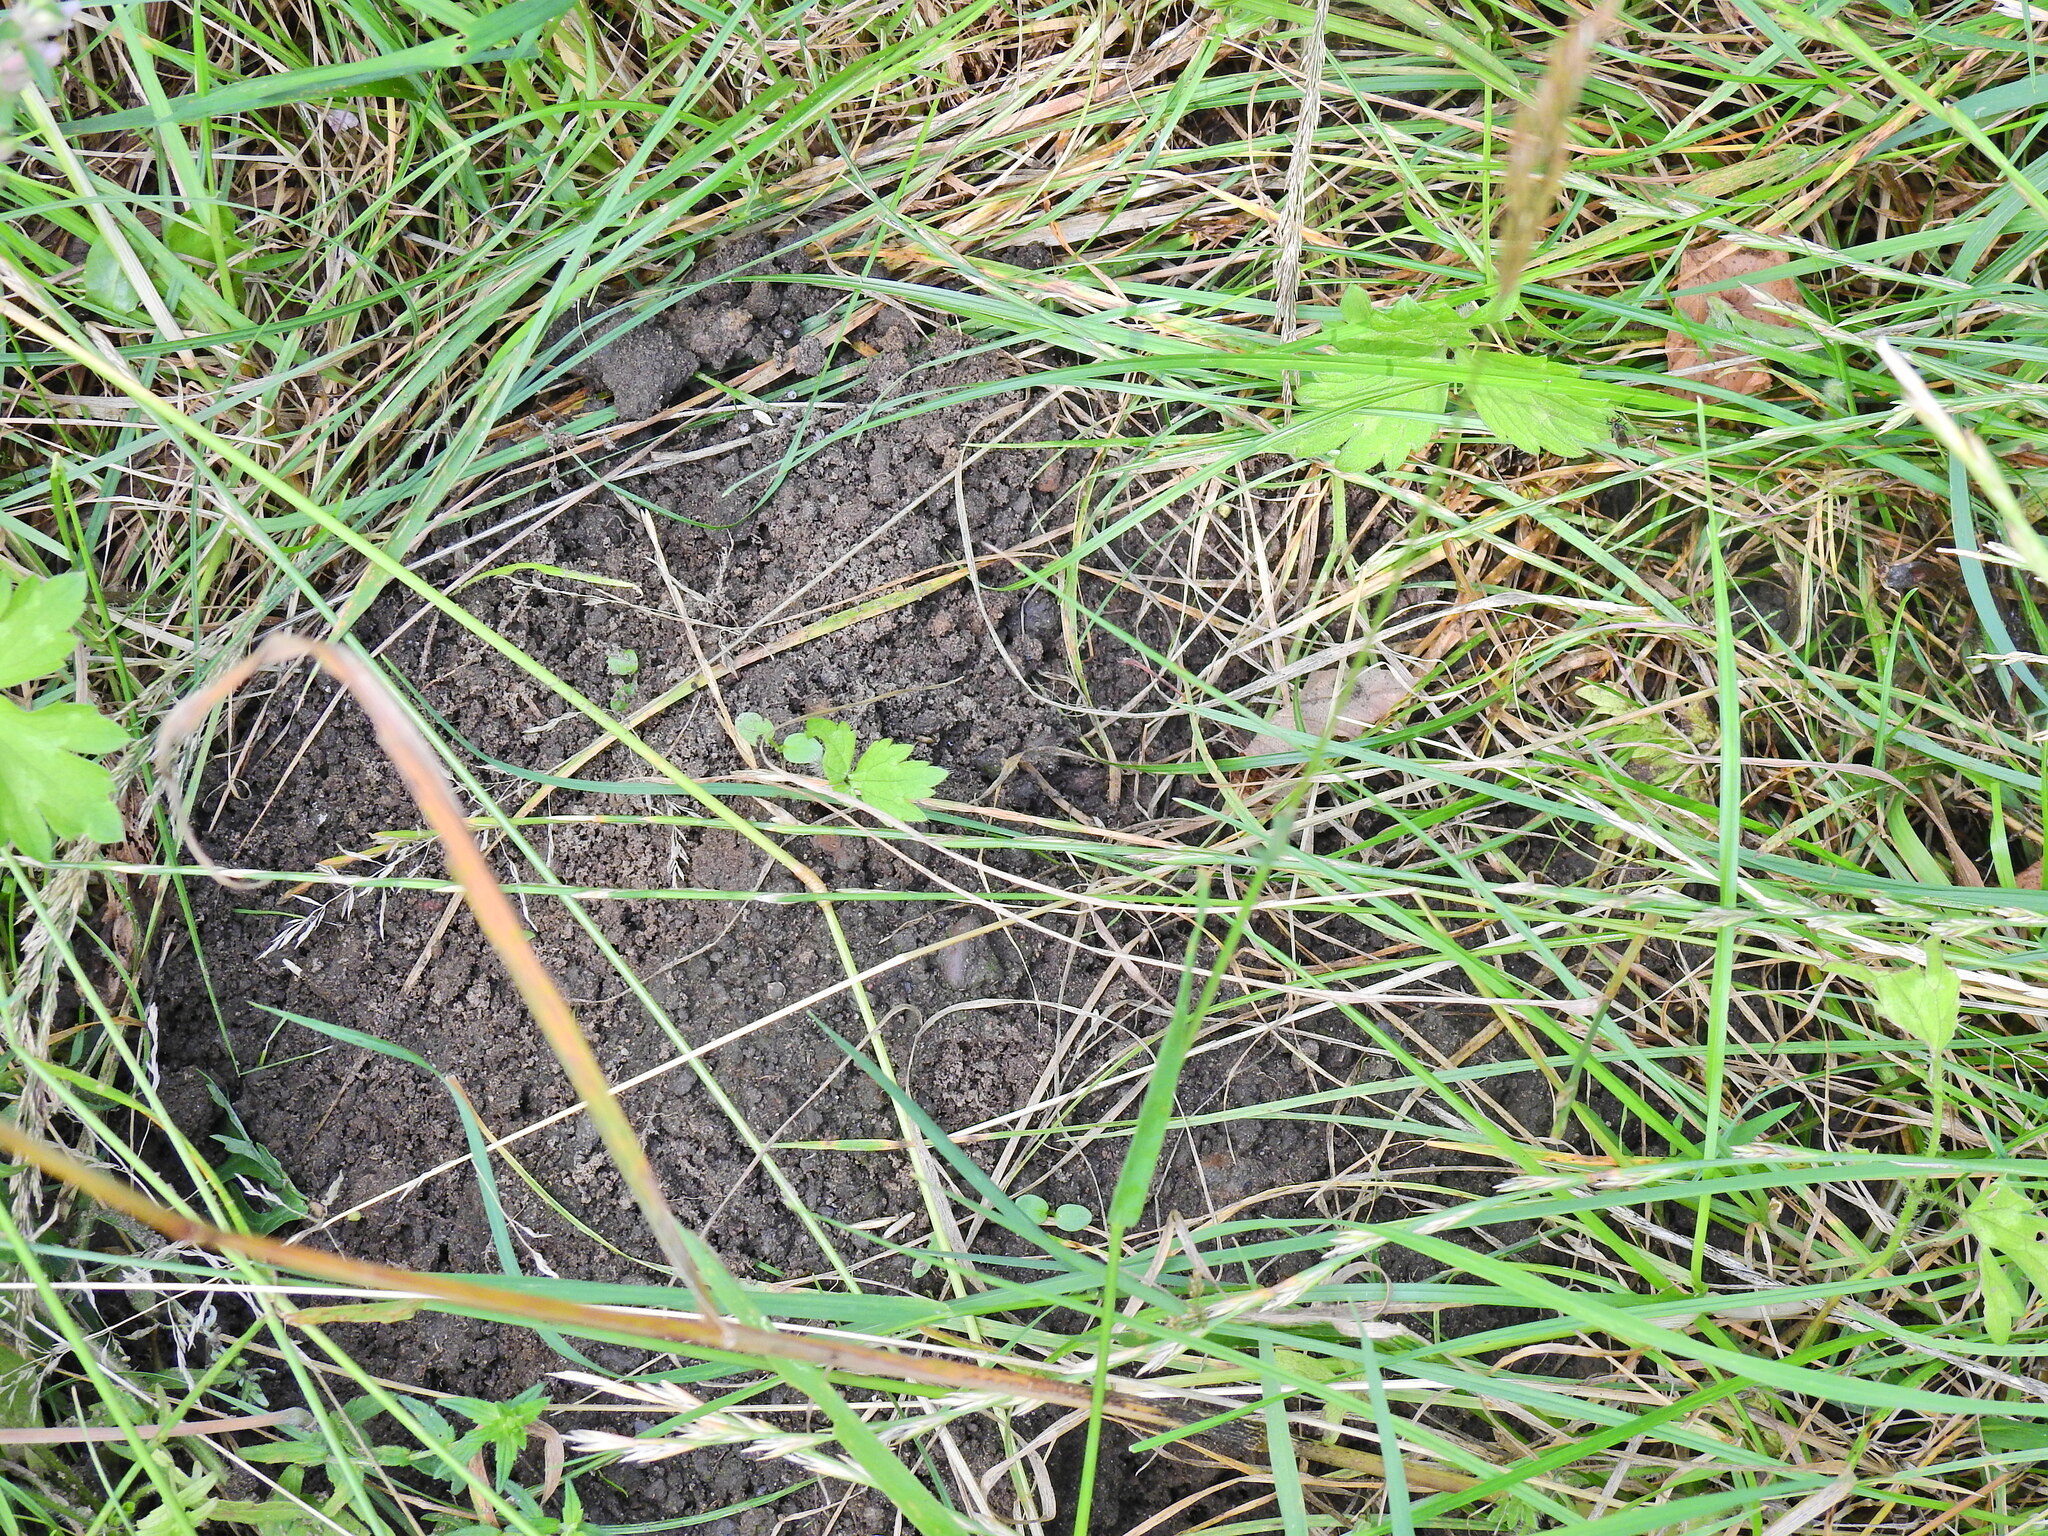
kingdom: Animalia
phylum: Chordata
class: Mammalia
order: Soricomorpha
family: Talpidae
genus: Talpa
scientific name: Talpa europaea
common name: European mole
